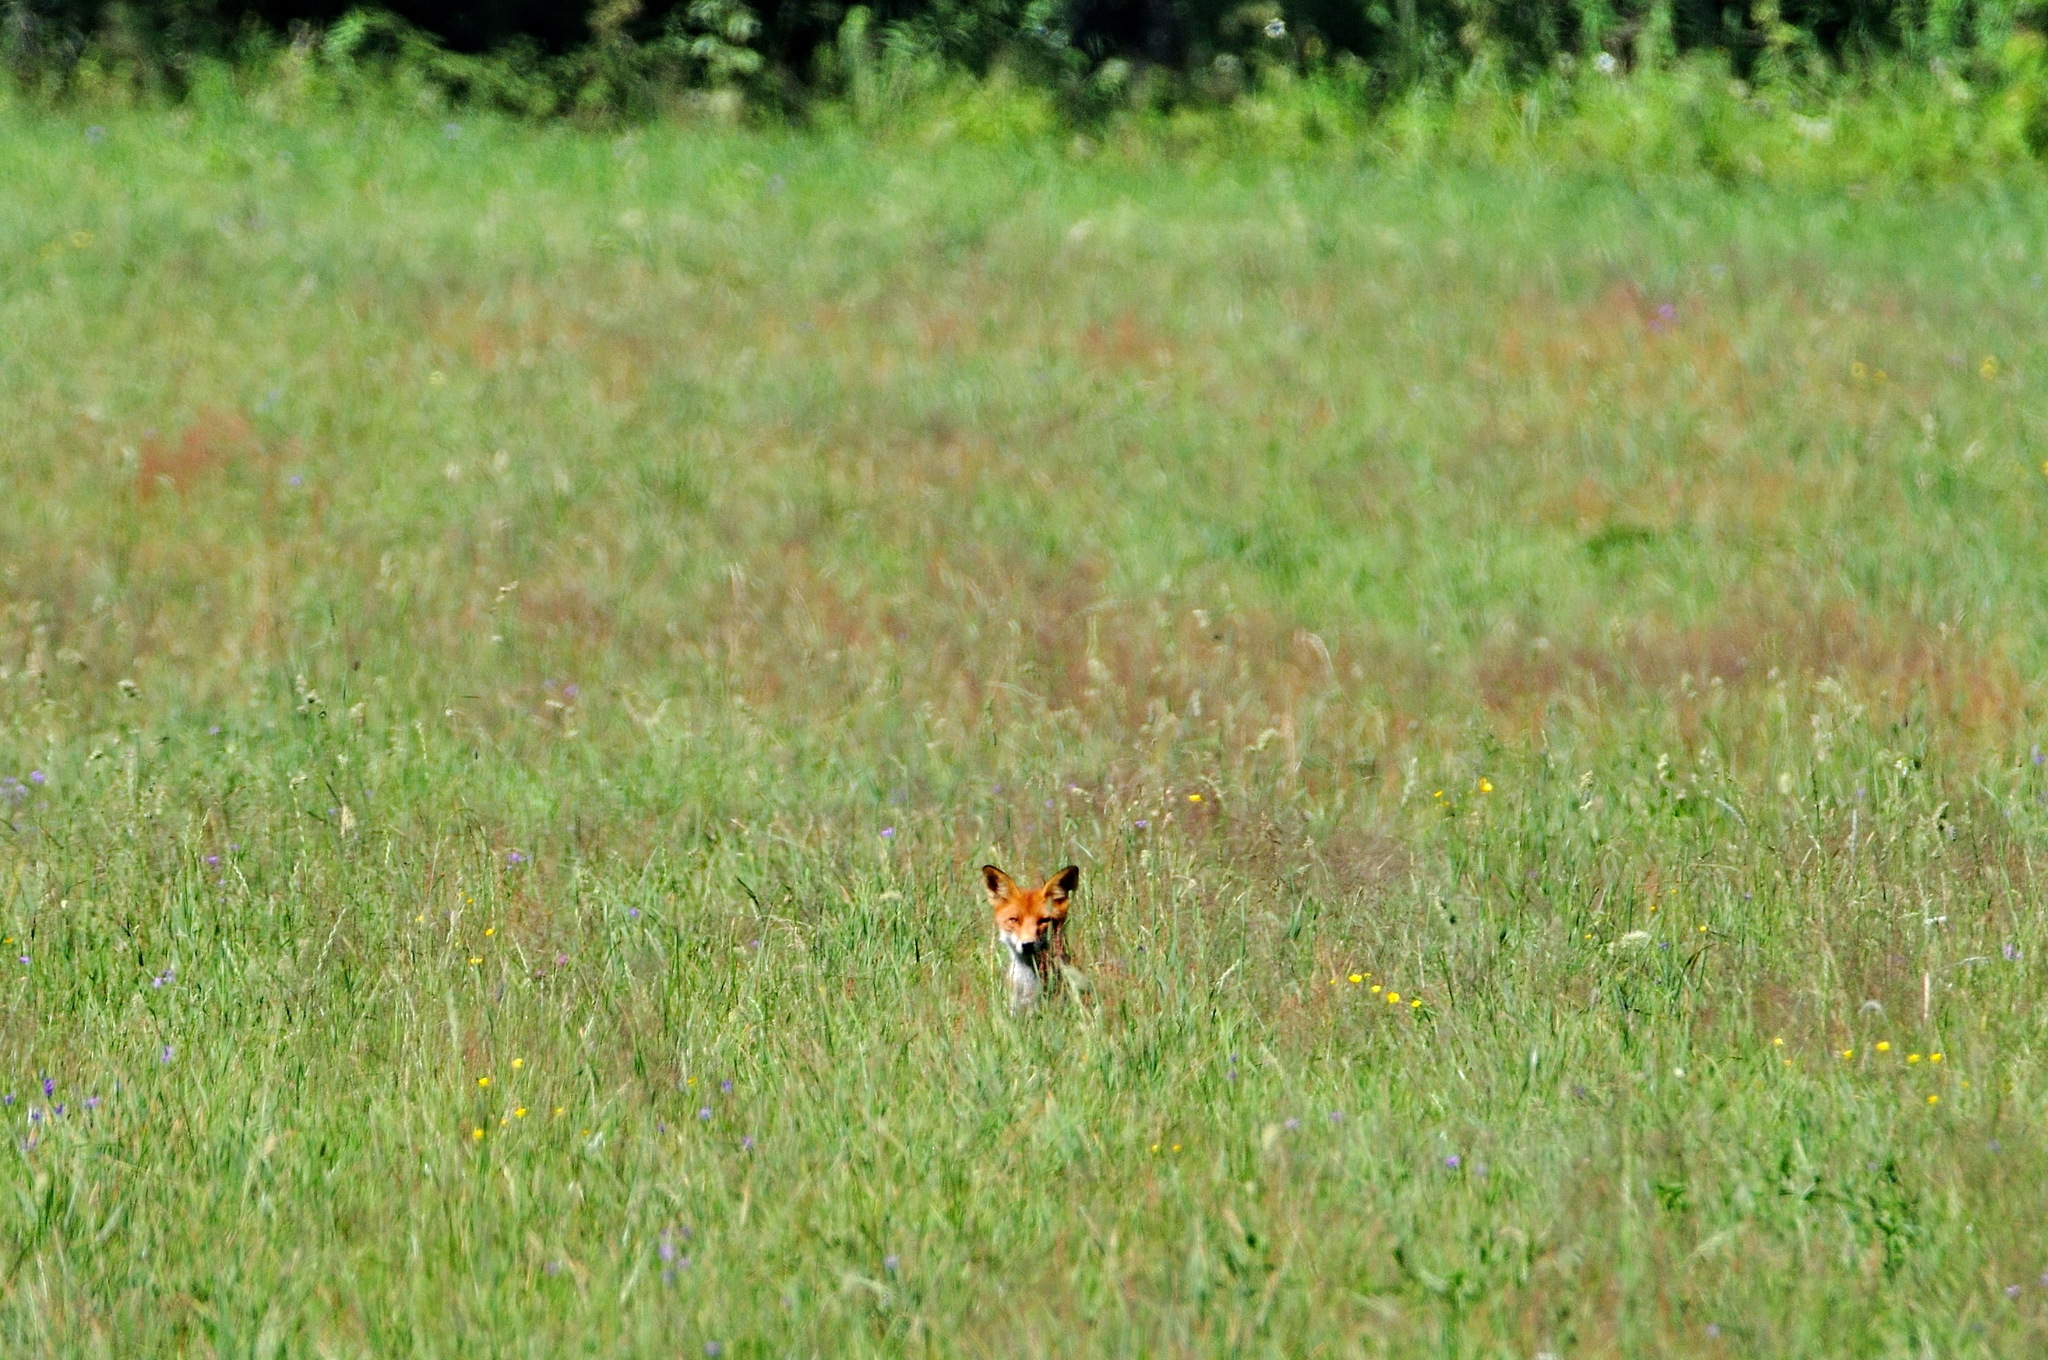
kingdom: Animalia
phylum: Chordata
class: Mammalia
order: Carnivora
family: Canidae
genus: Vulpes
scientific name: Vulpes vulpes
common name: Red fox
